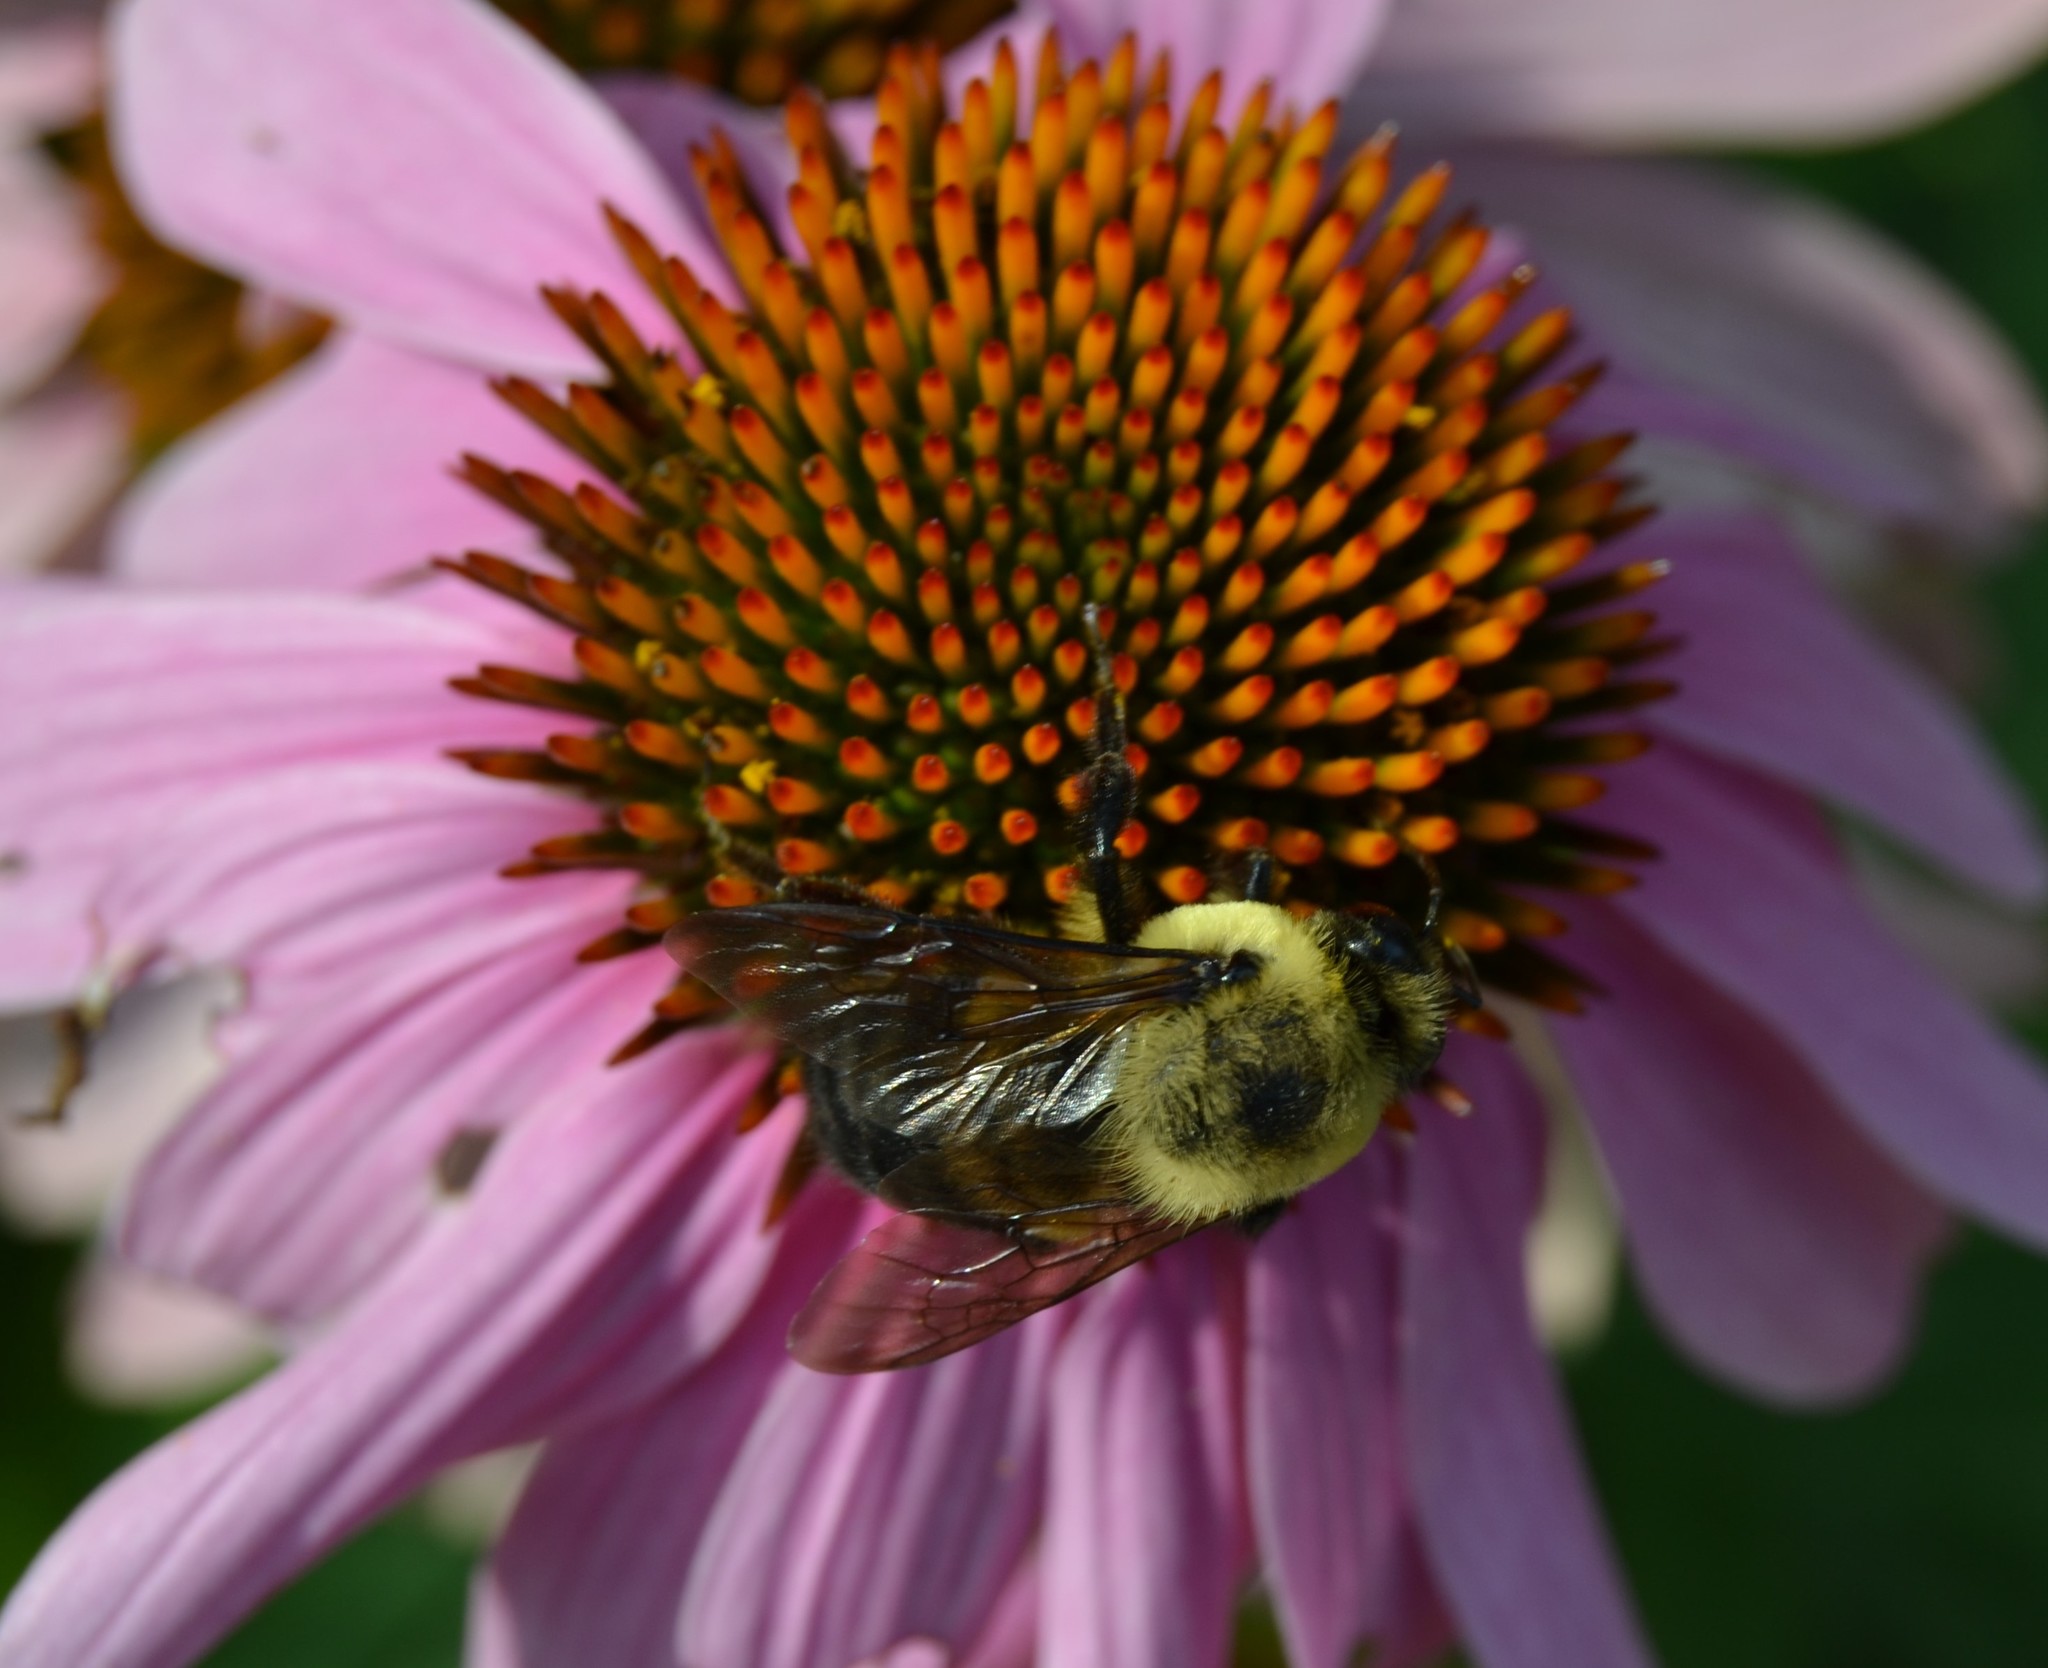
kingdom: Animalia
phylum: Arthropoda
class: Insecta
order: Hymenoptera
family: Apidae
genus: Bombus
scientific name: Bombus griseocollis
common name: Brown-belted bumble bee
